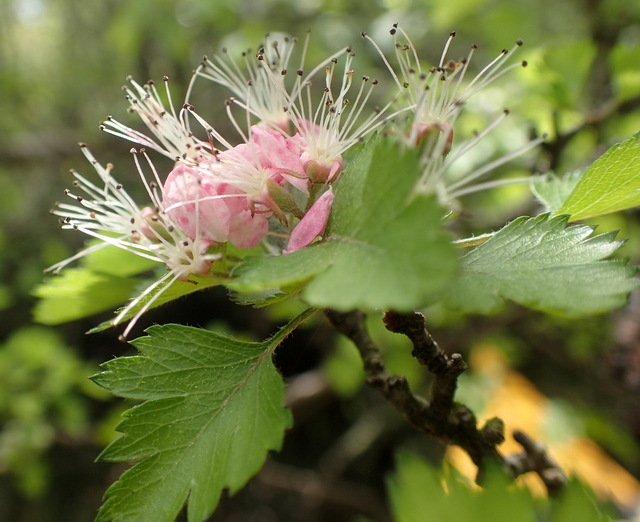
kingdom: Plantae
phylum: Tracheophyta
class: Magnoliopsida
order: Rosales
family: Rosaceae
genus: Crataegus
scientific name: Crataegus marshallii
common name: Parsley-hawthorn
